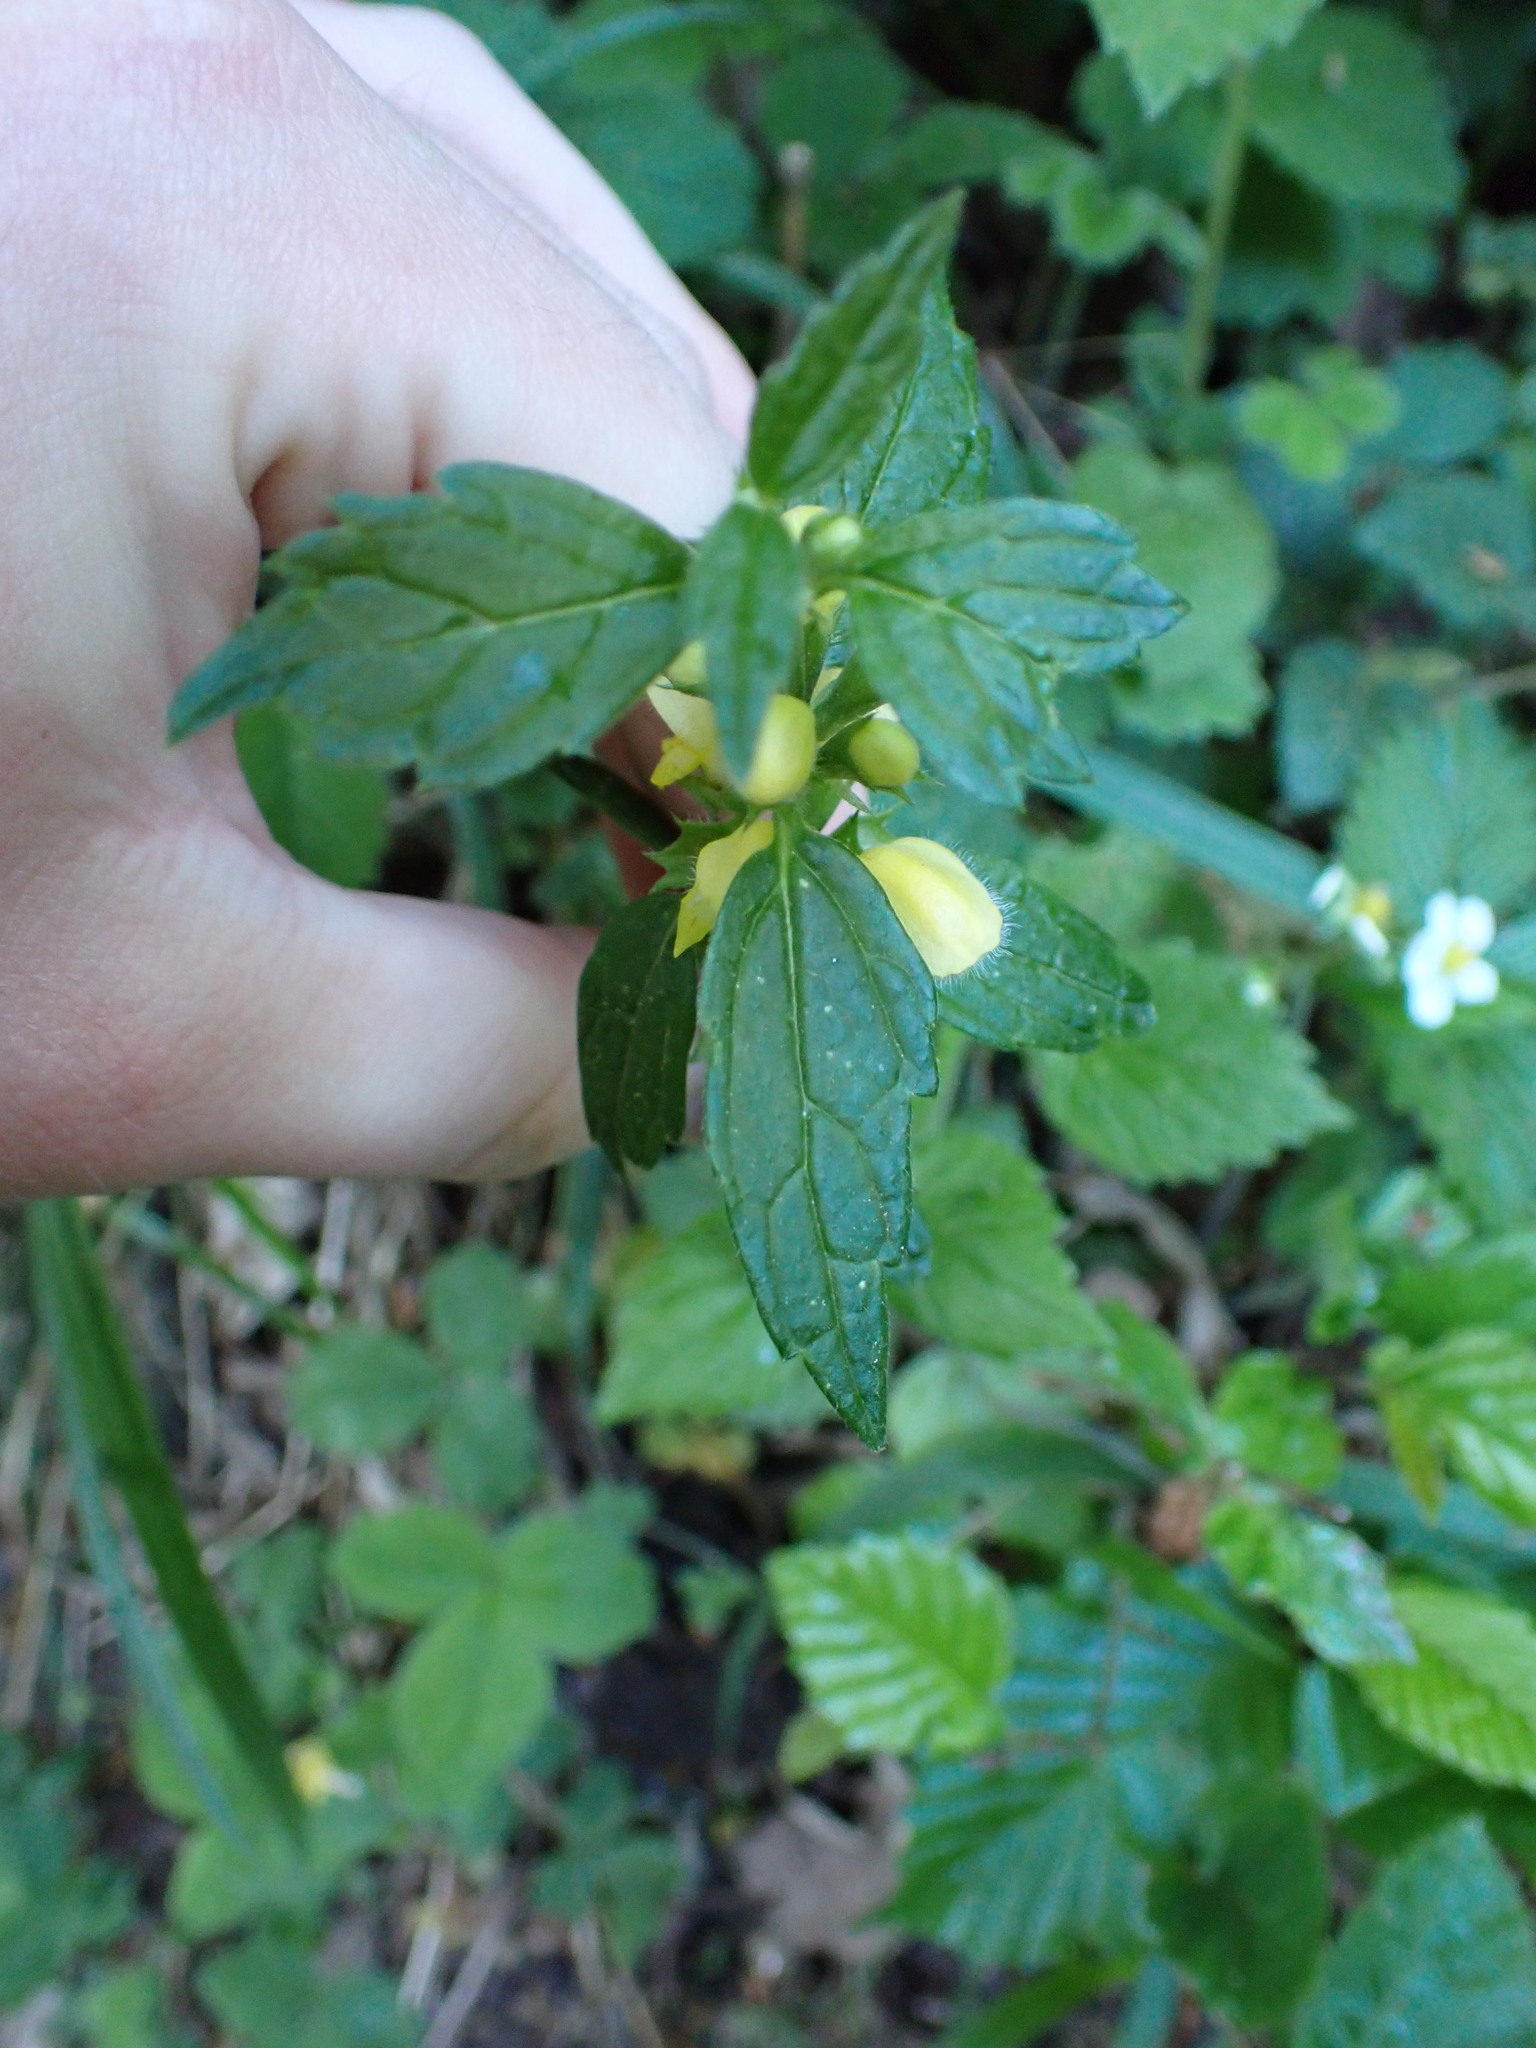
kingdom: Plantae
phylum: Tracheophyta
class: Magnoliopsida
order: Lamiales
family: Lamiaceae
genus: Lamium
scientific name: Lamium galeobdolon
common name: Yellow archangel
